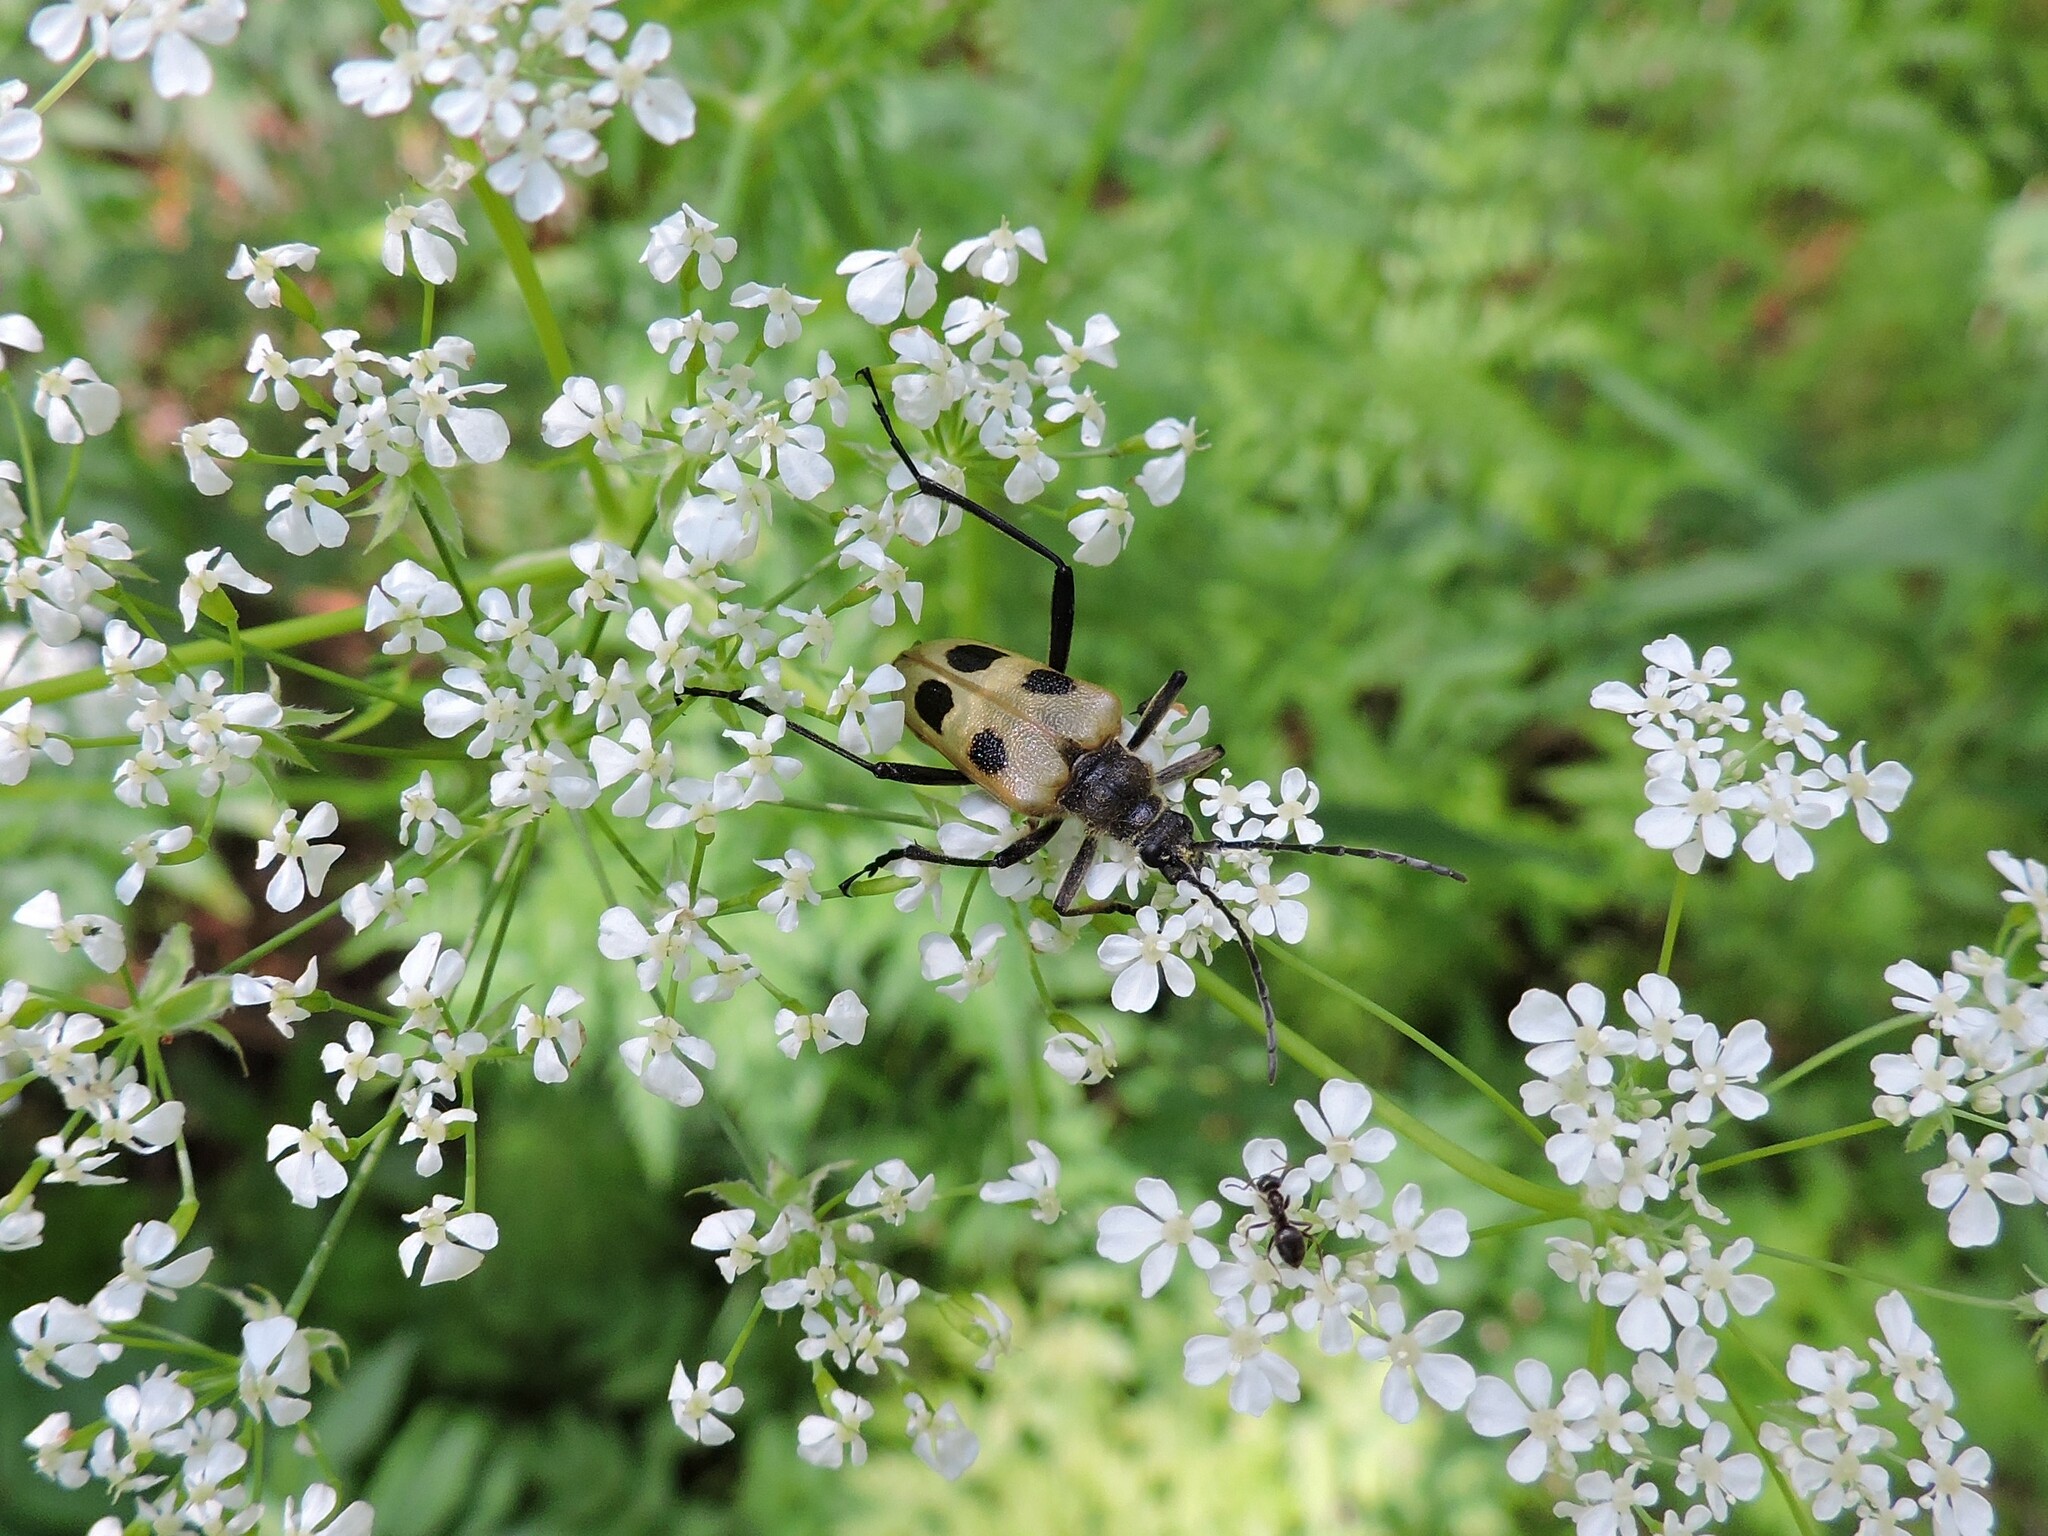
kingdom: Animalia
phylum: Arthropoda
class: Insecta
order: Coleoptera
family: Cerambycidae
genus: Pachyta
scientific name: Pachyta quadrimaculata
